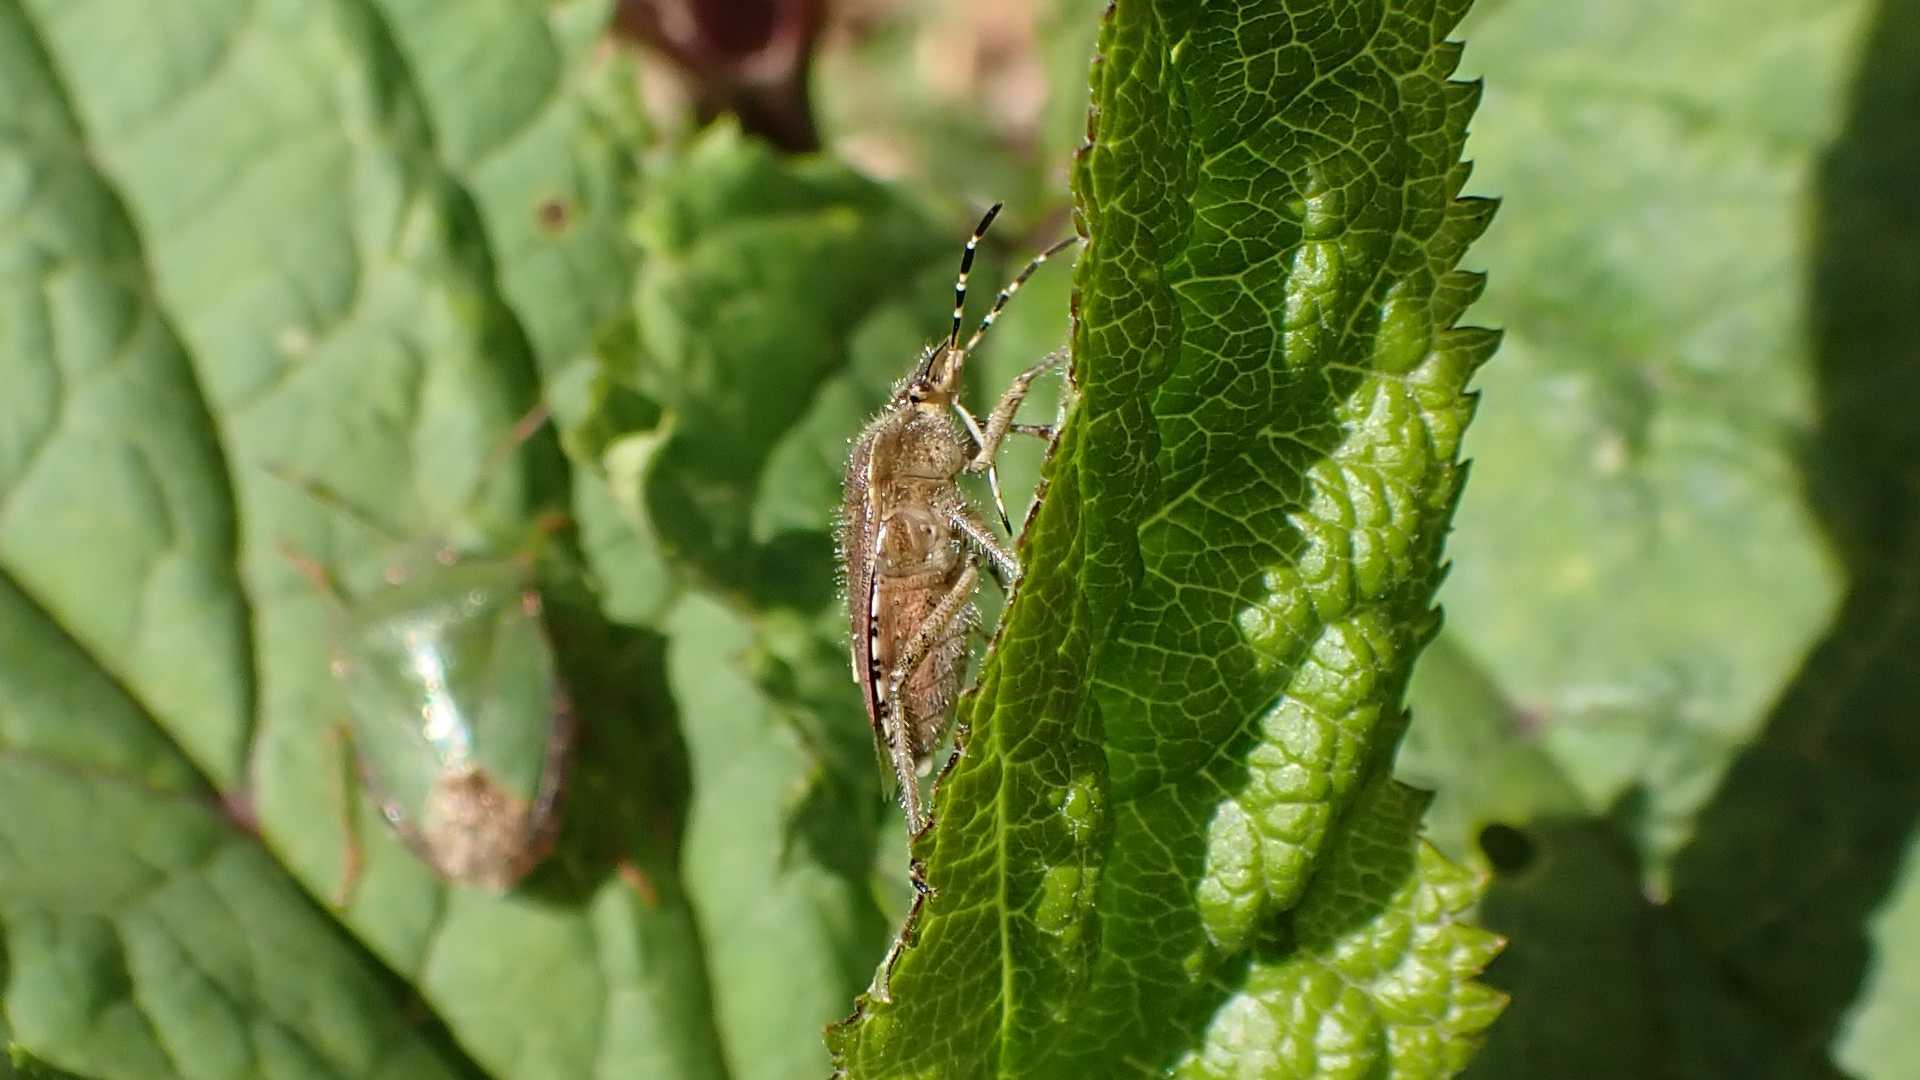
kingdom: Animalia
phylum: Arthropoda
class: Insecta
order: Hemiptera
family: Pentatomidae
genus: Dolycoris
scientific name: Dolycoris baccarum
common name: Sloe bug
